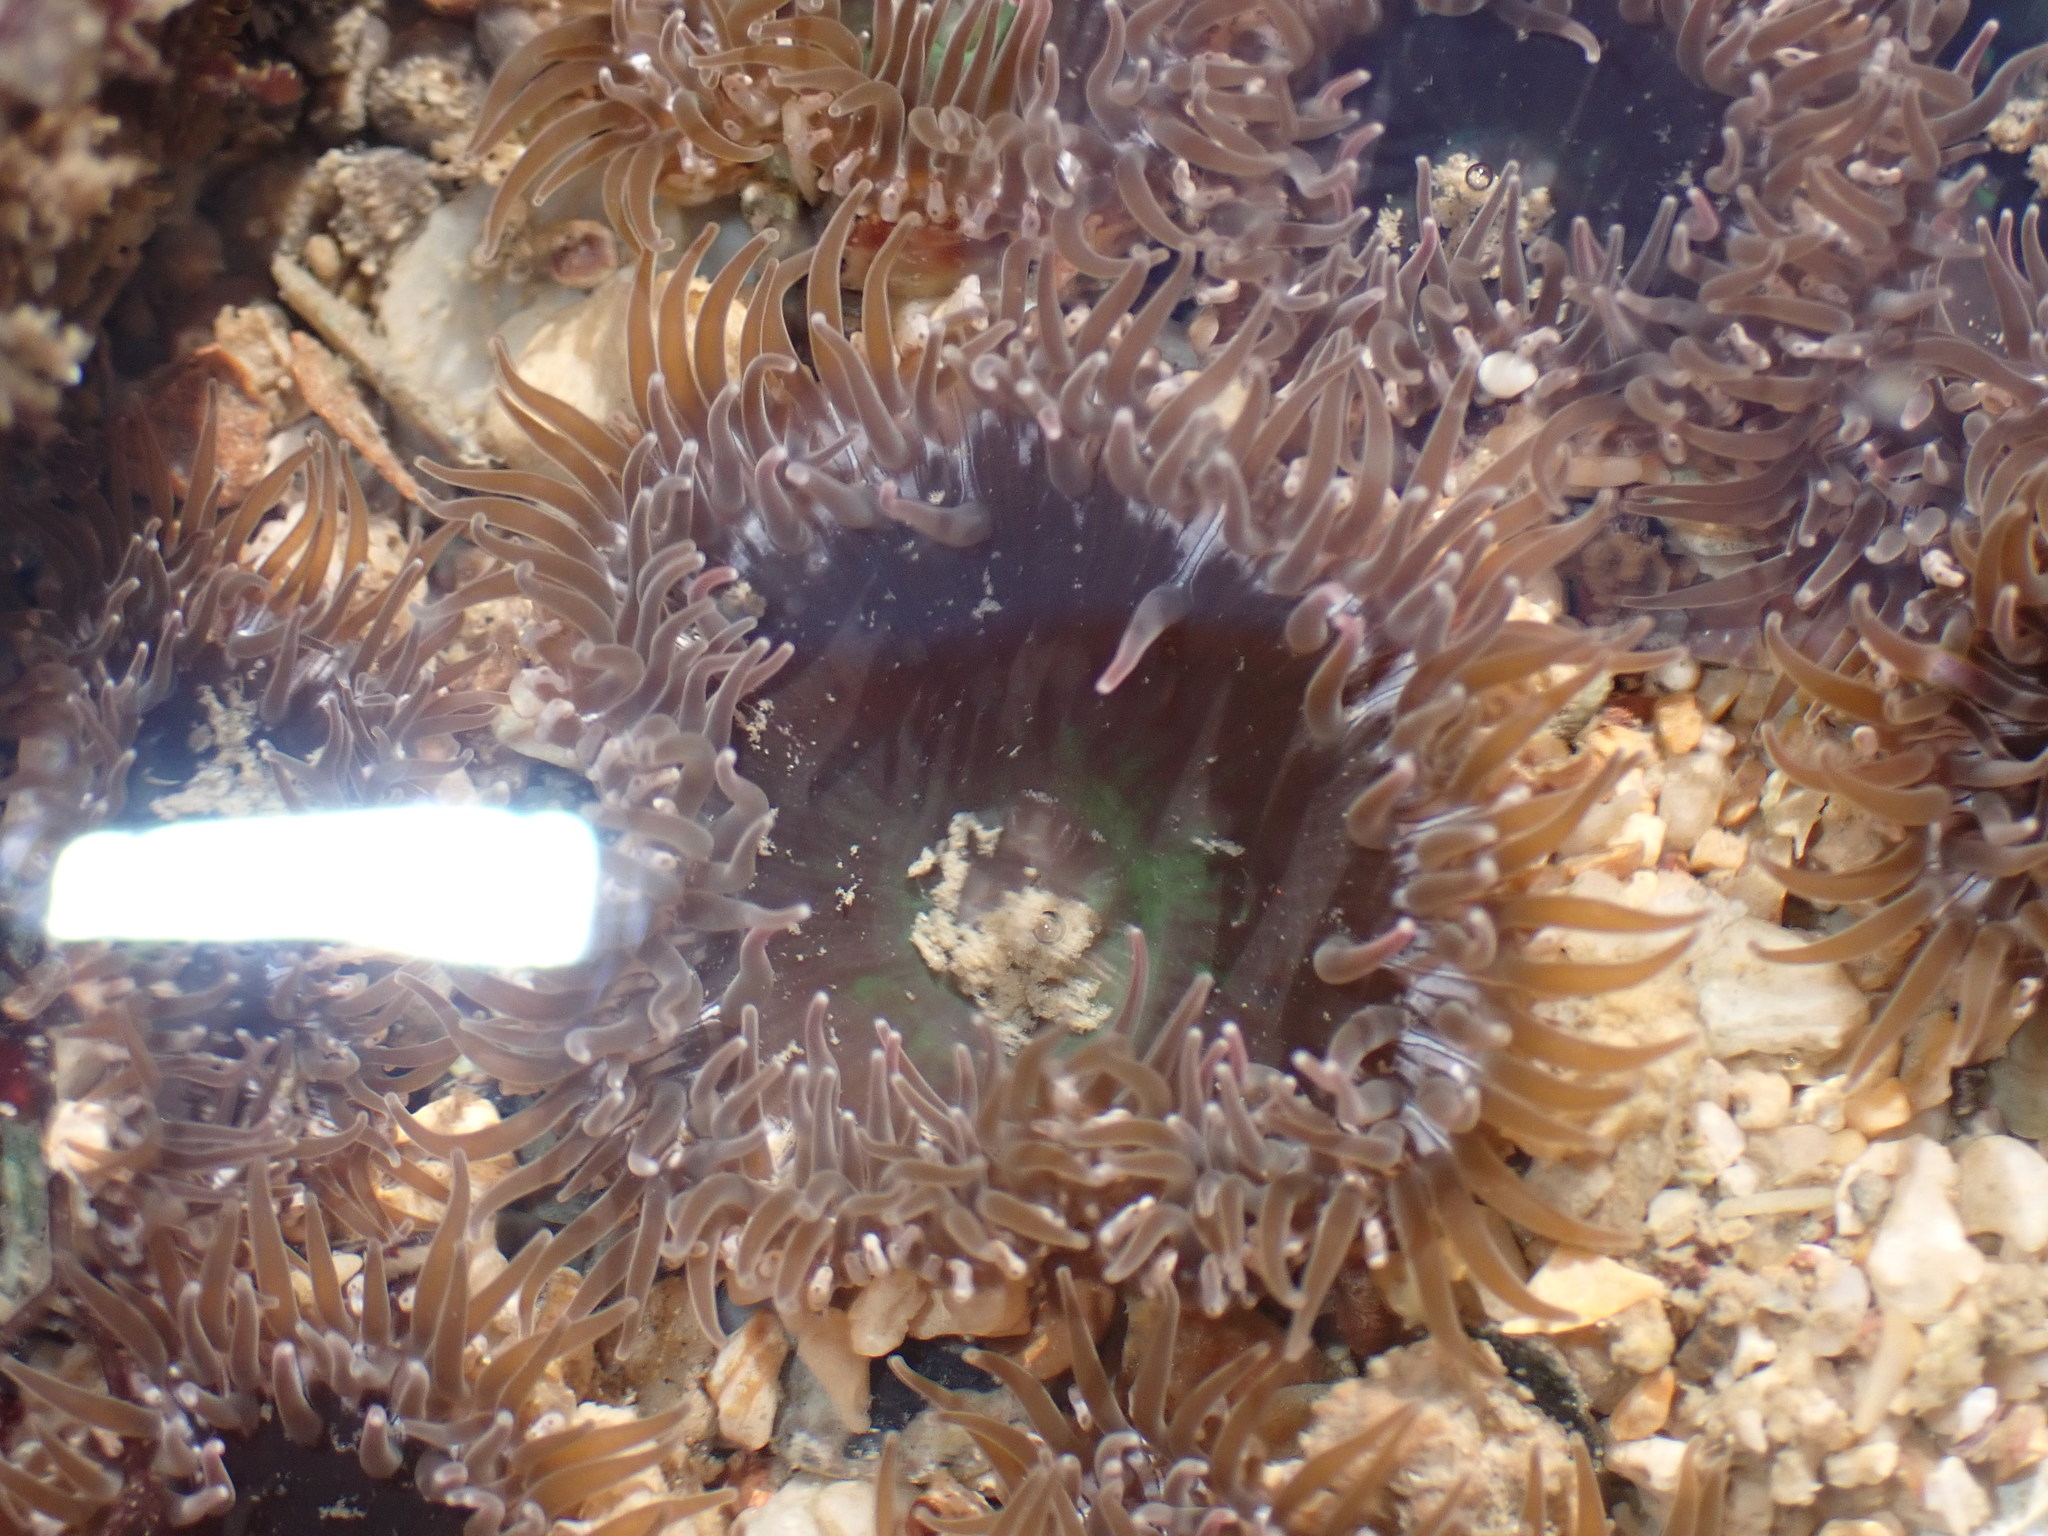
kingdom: Animalia
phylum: Cnidaria
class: Anthozoa
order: Actiniaria
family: Actiniidae
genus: Gyractis
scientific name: Gyractis sesere
